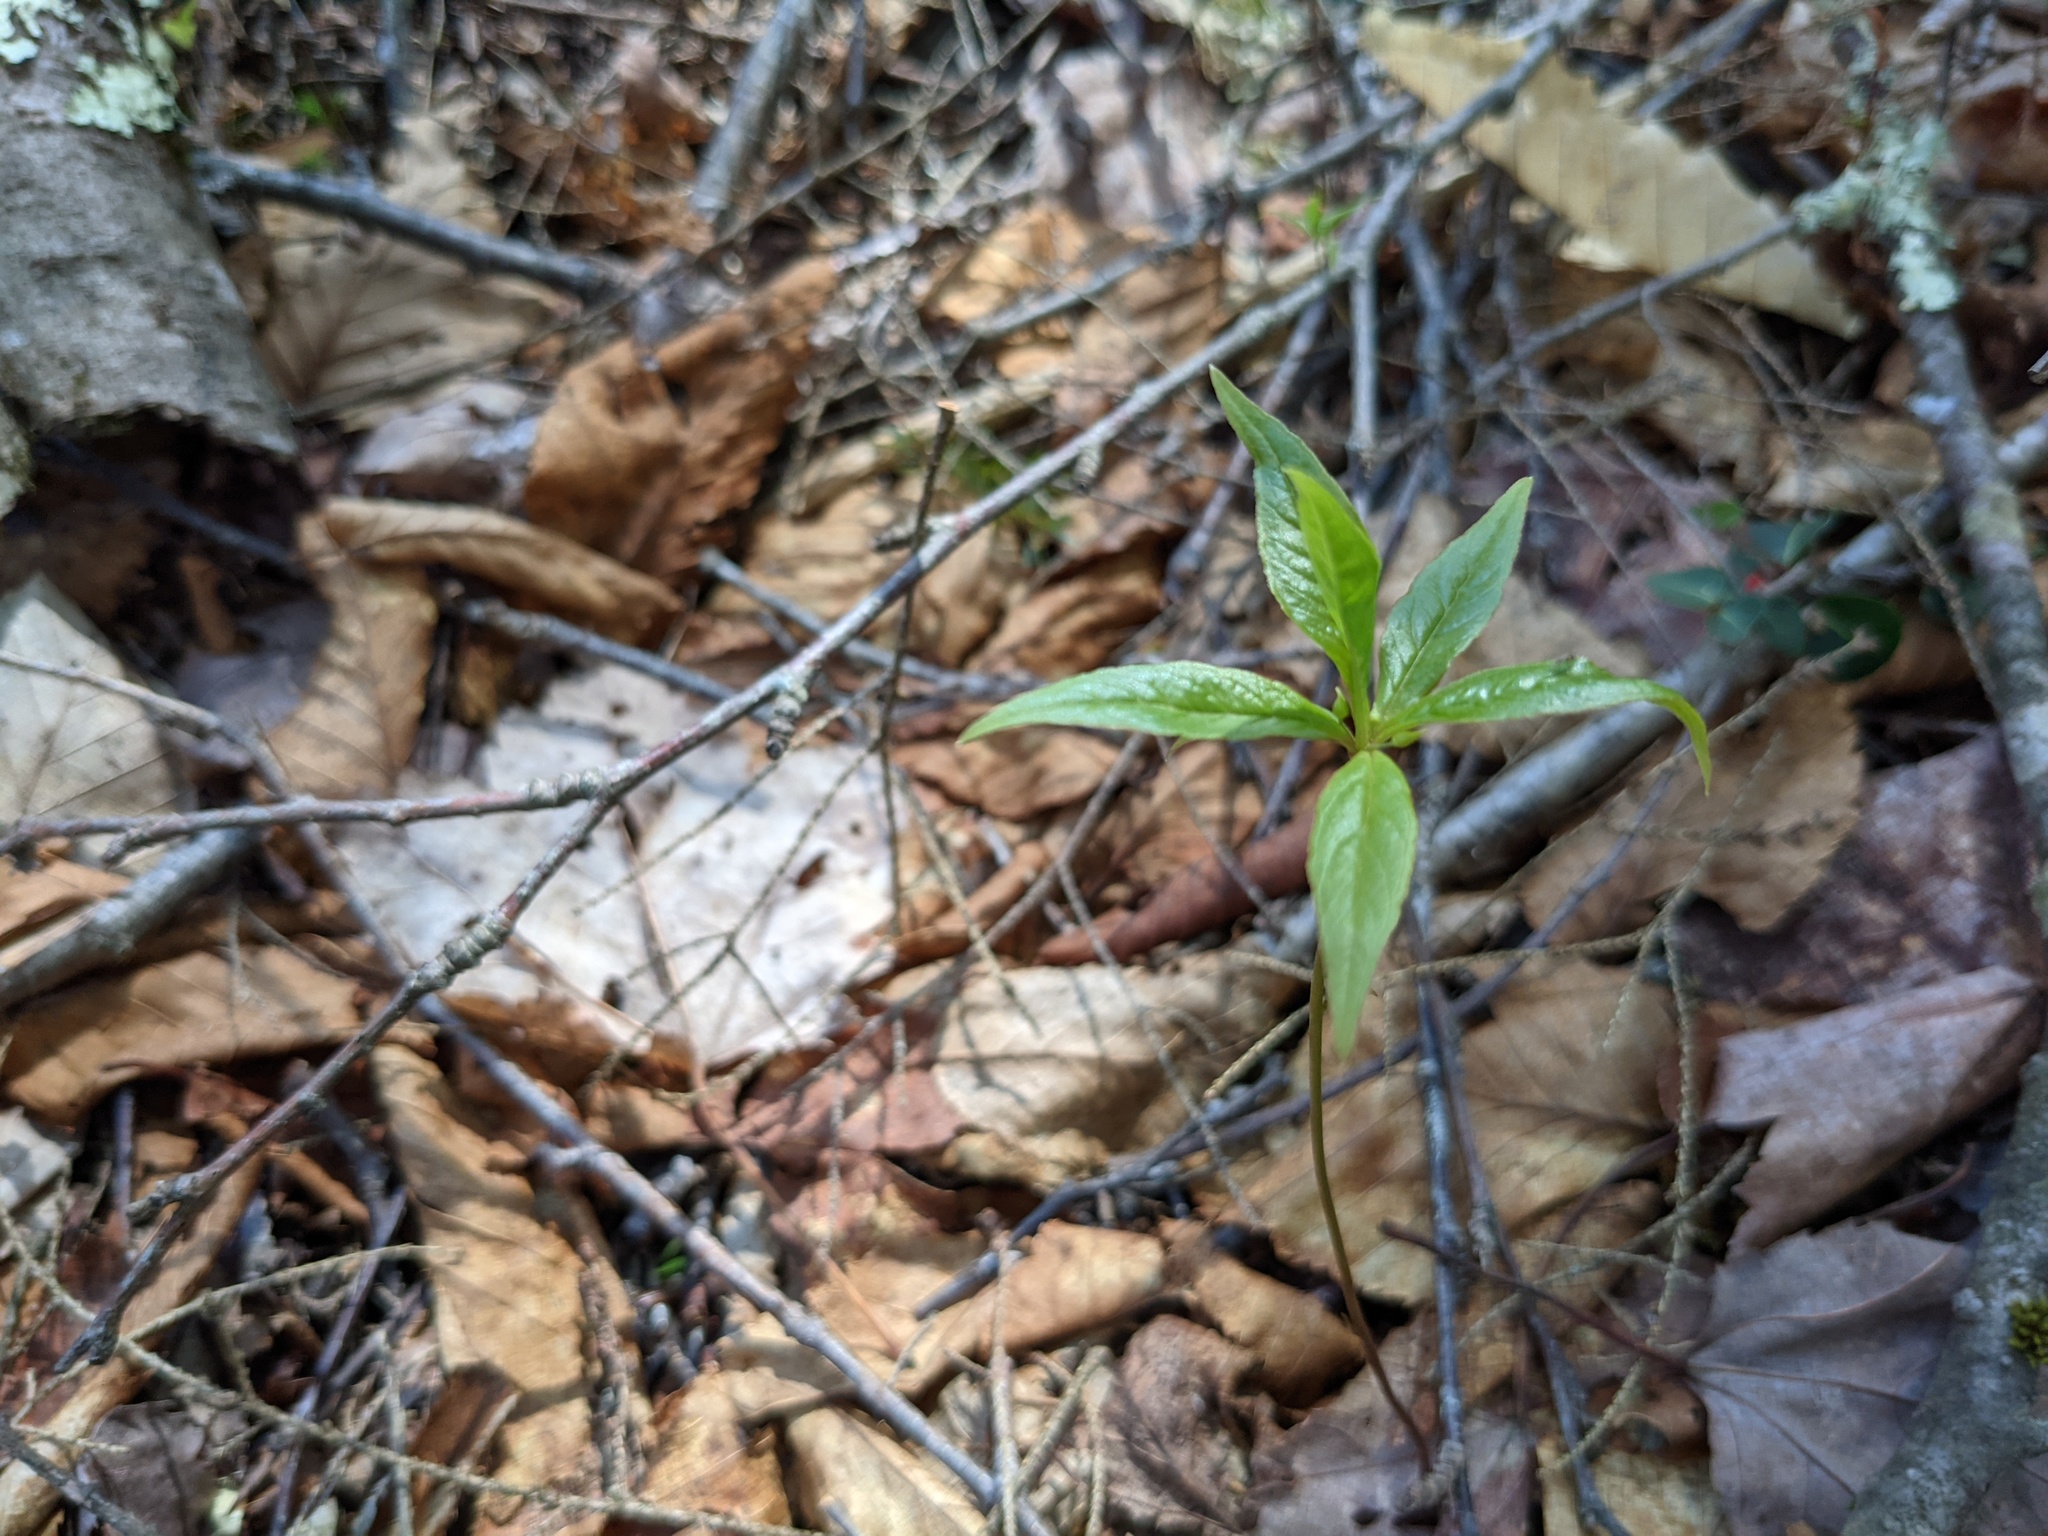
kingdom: Plantae
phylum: Tracheophyta
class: Magnoliopsida
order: Ericales
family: Primulaceae
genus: Lysimachia
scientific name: Lysimachia borealis
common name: American starflower
